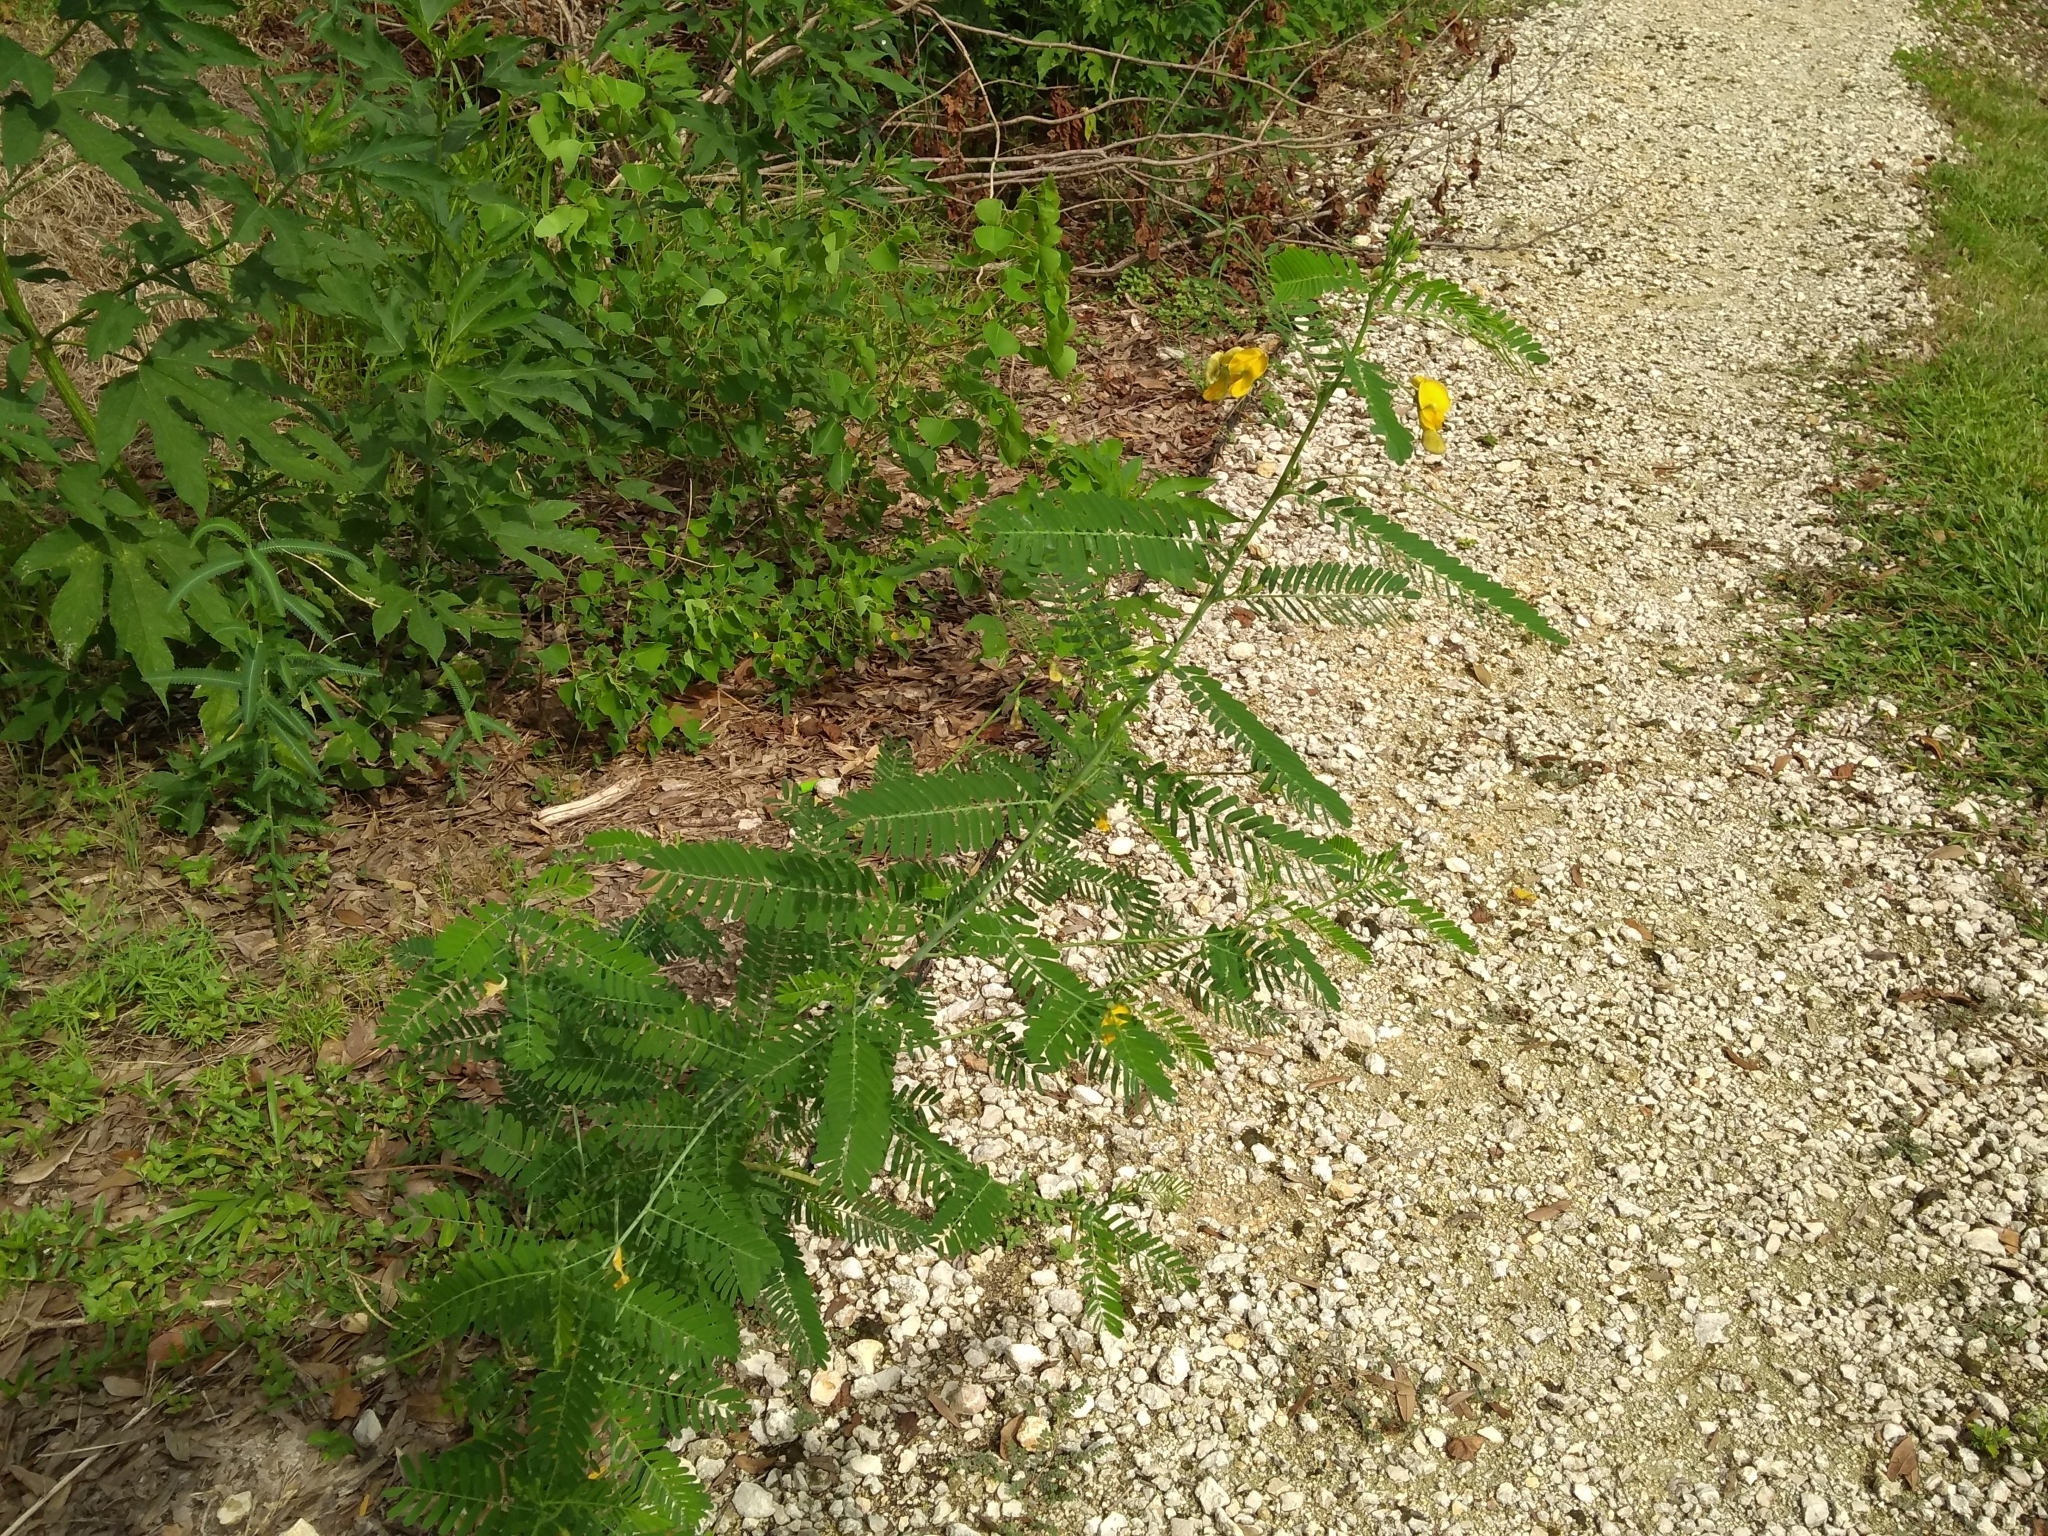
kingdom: Plantae
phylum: Tracheophyta
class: Magnoliopsida
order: Fabales
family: Fabaceae
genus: Sesbania
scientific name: Sesbania herbacea
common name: Bigpod sesbania
